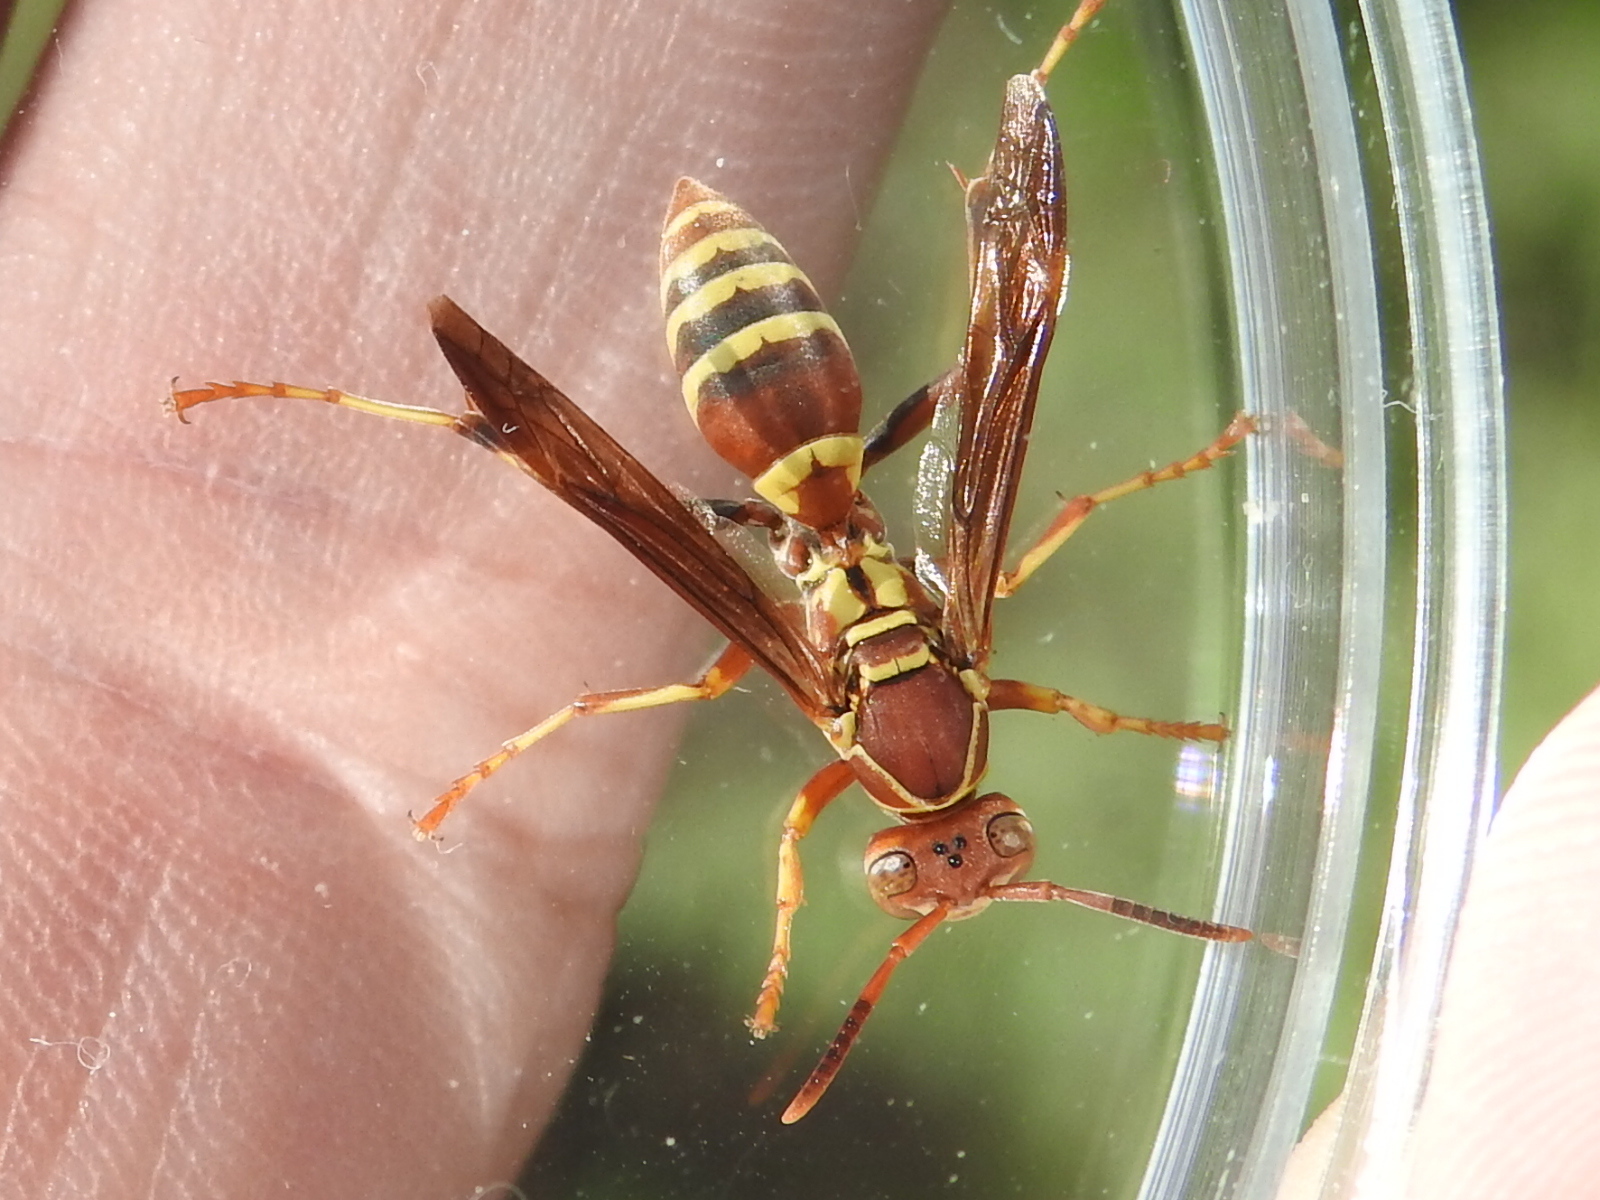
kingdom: Animalia
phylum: Arthropoda
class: Insecta
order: Hymenoptera
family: Eumenidae
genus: Polistes
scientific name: Polistes dorsalis
